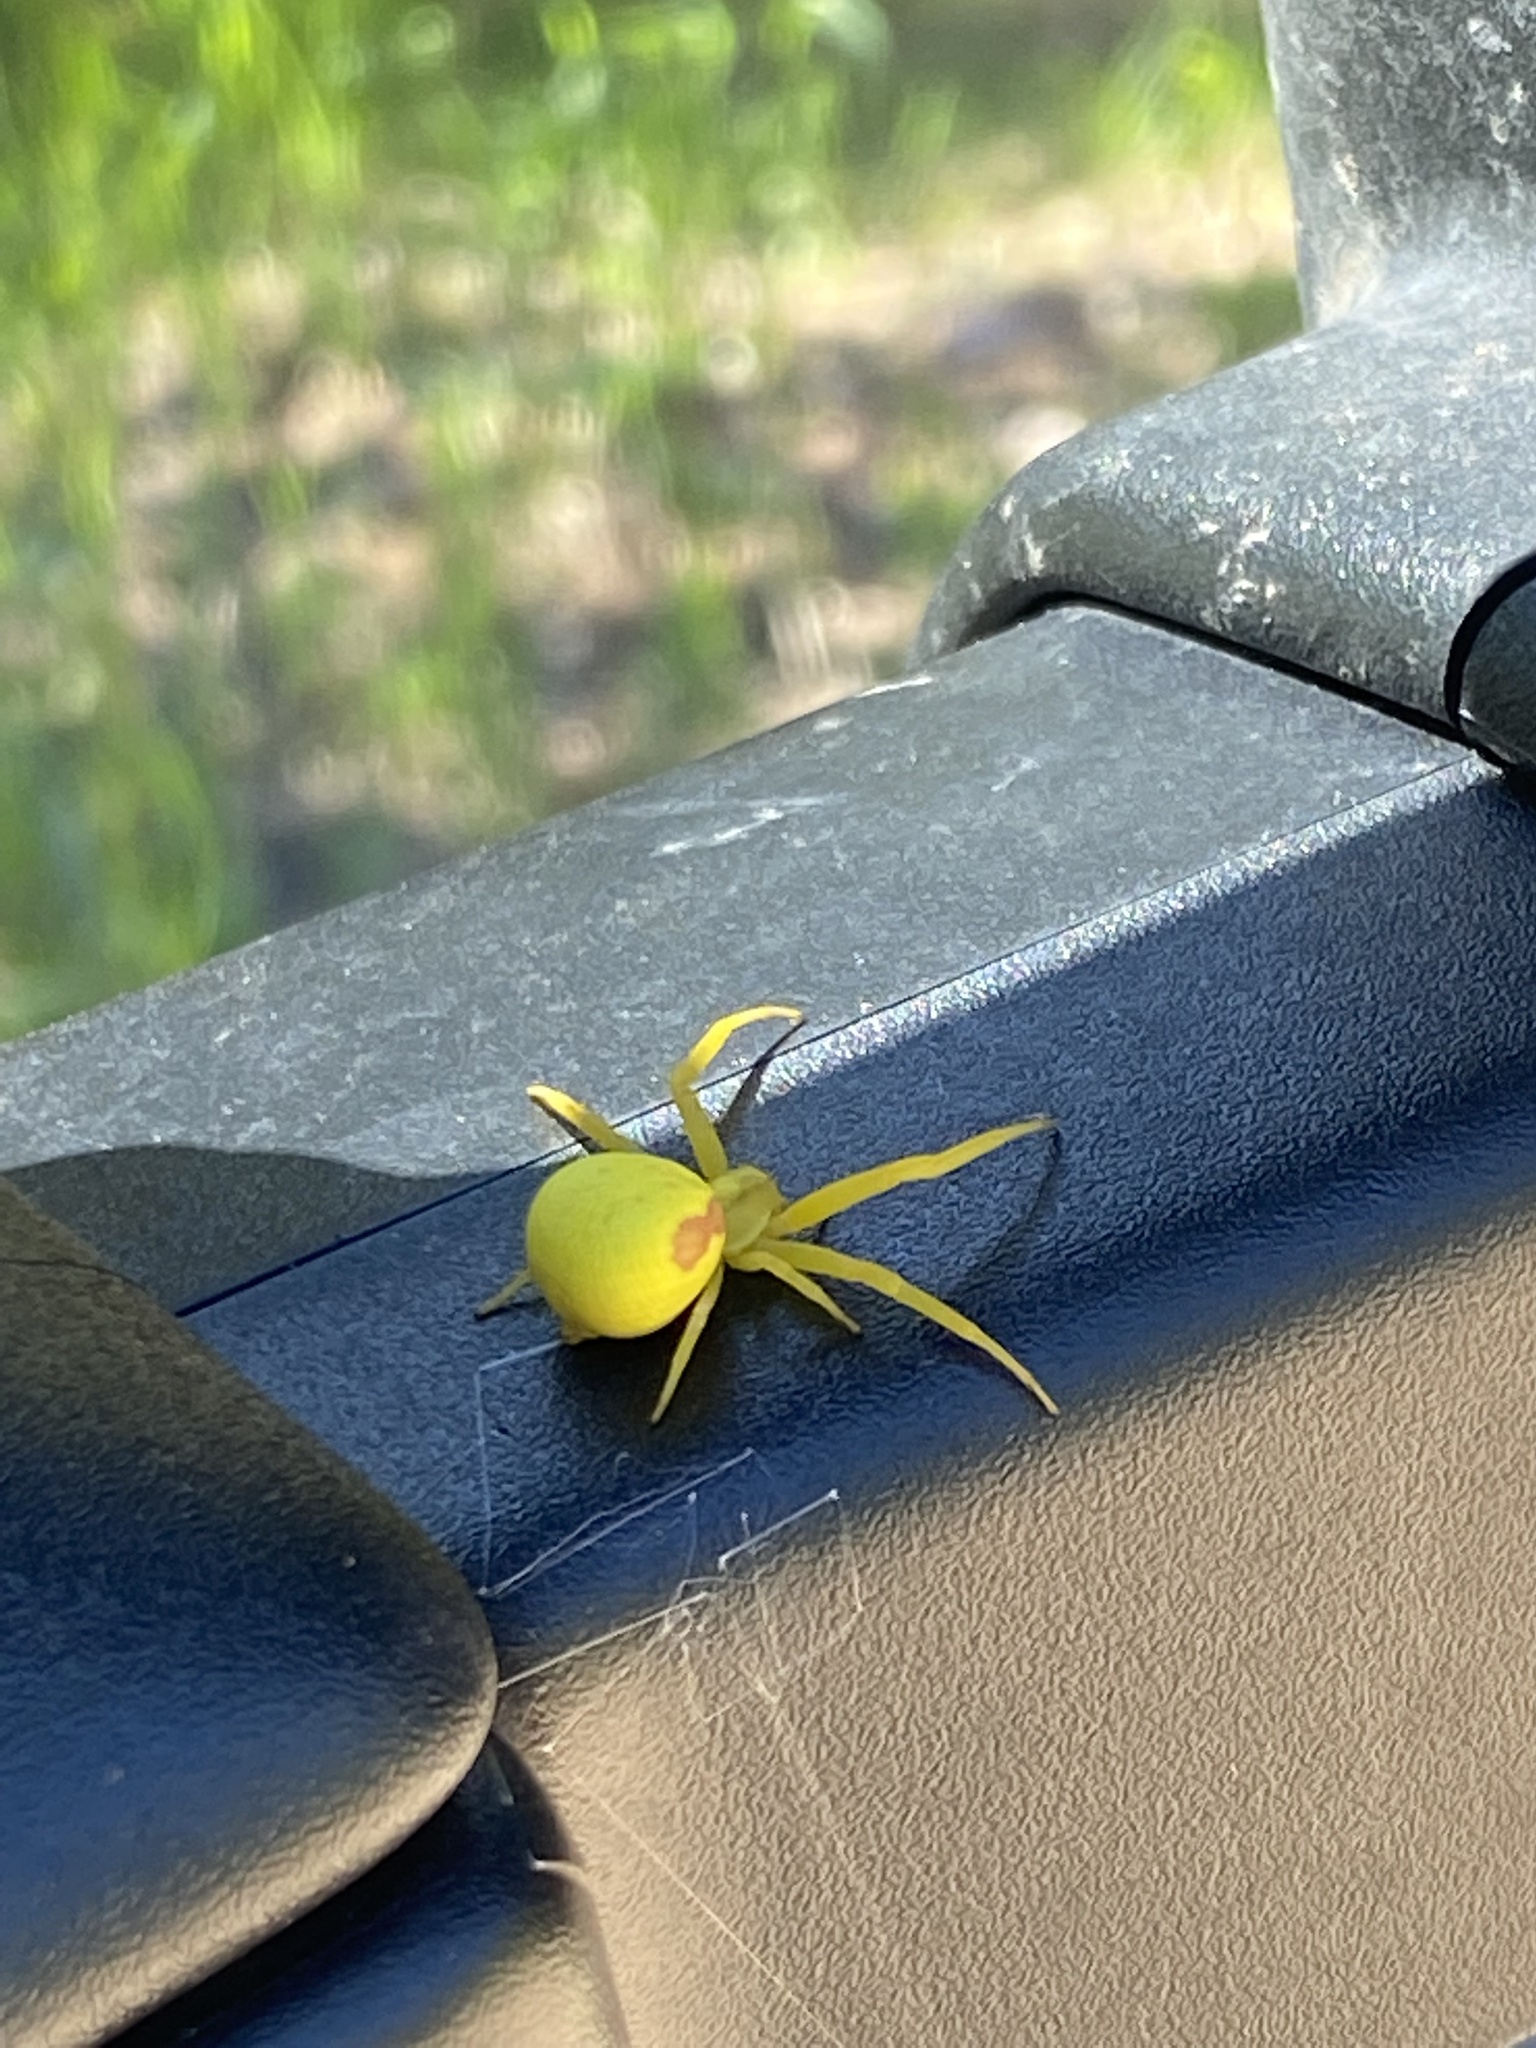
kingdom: Animalia
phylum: Arthropoda
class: Arachnida
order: Araneae
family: Thomisidae
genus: Misumena
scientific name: Misumena vatia
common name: Goldenrod crab spider
